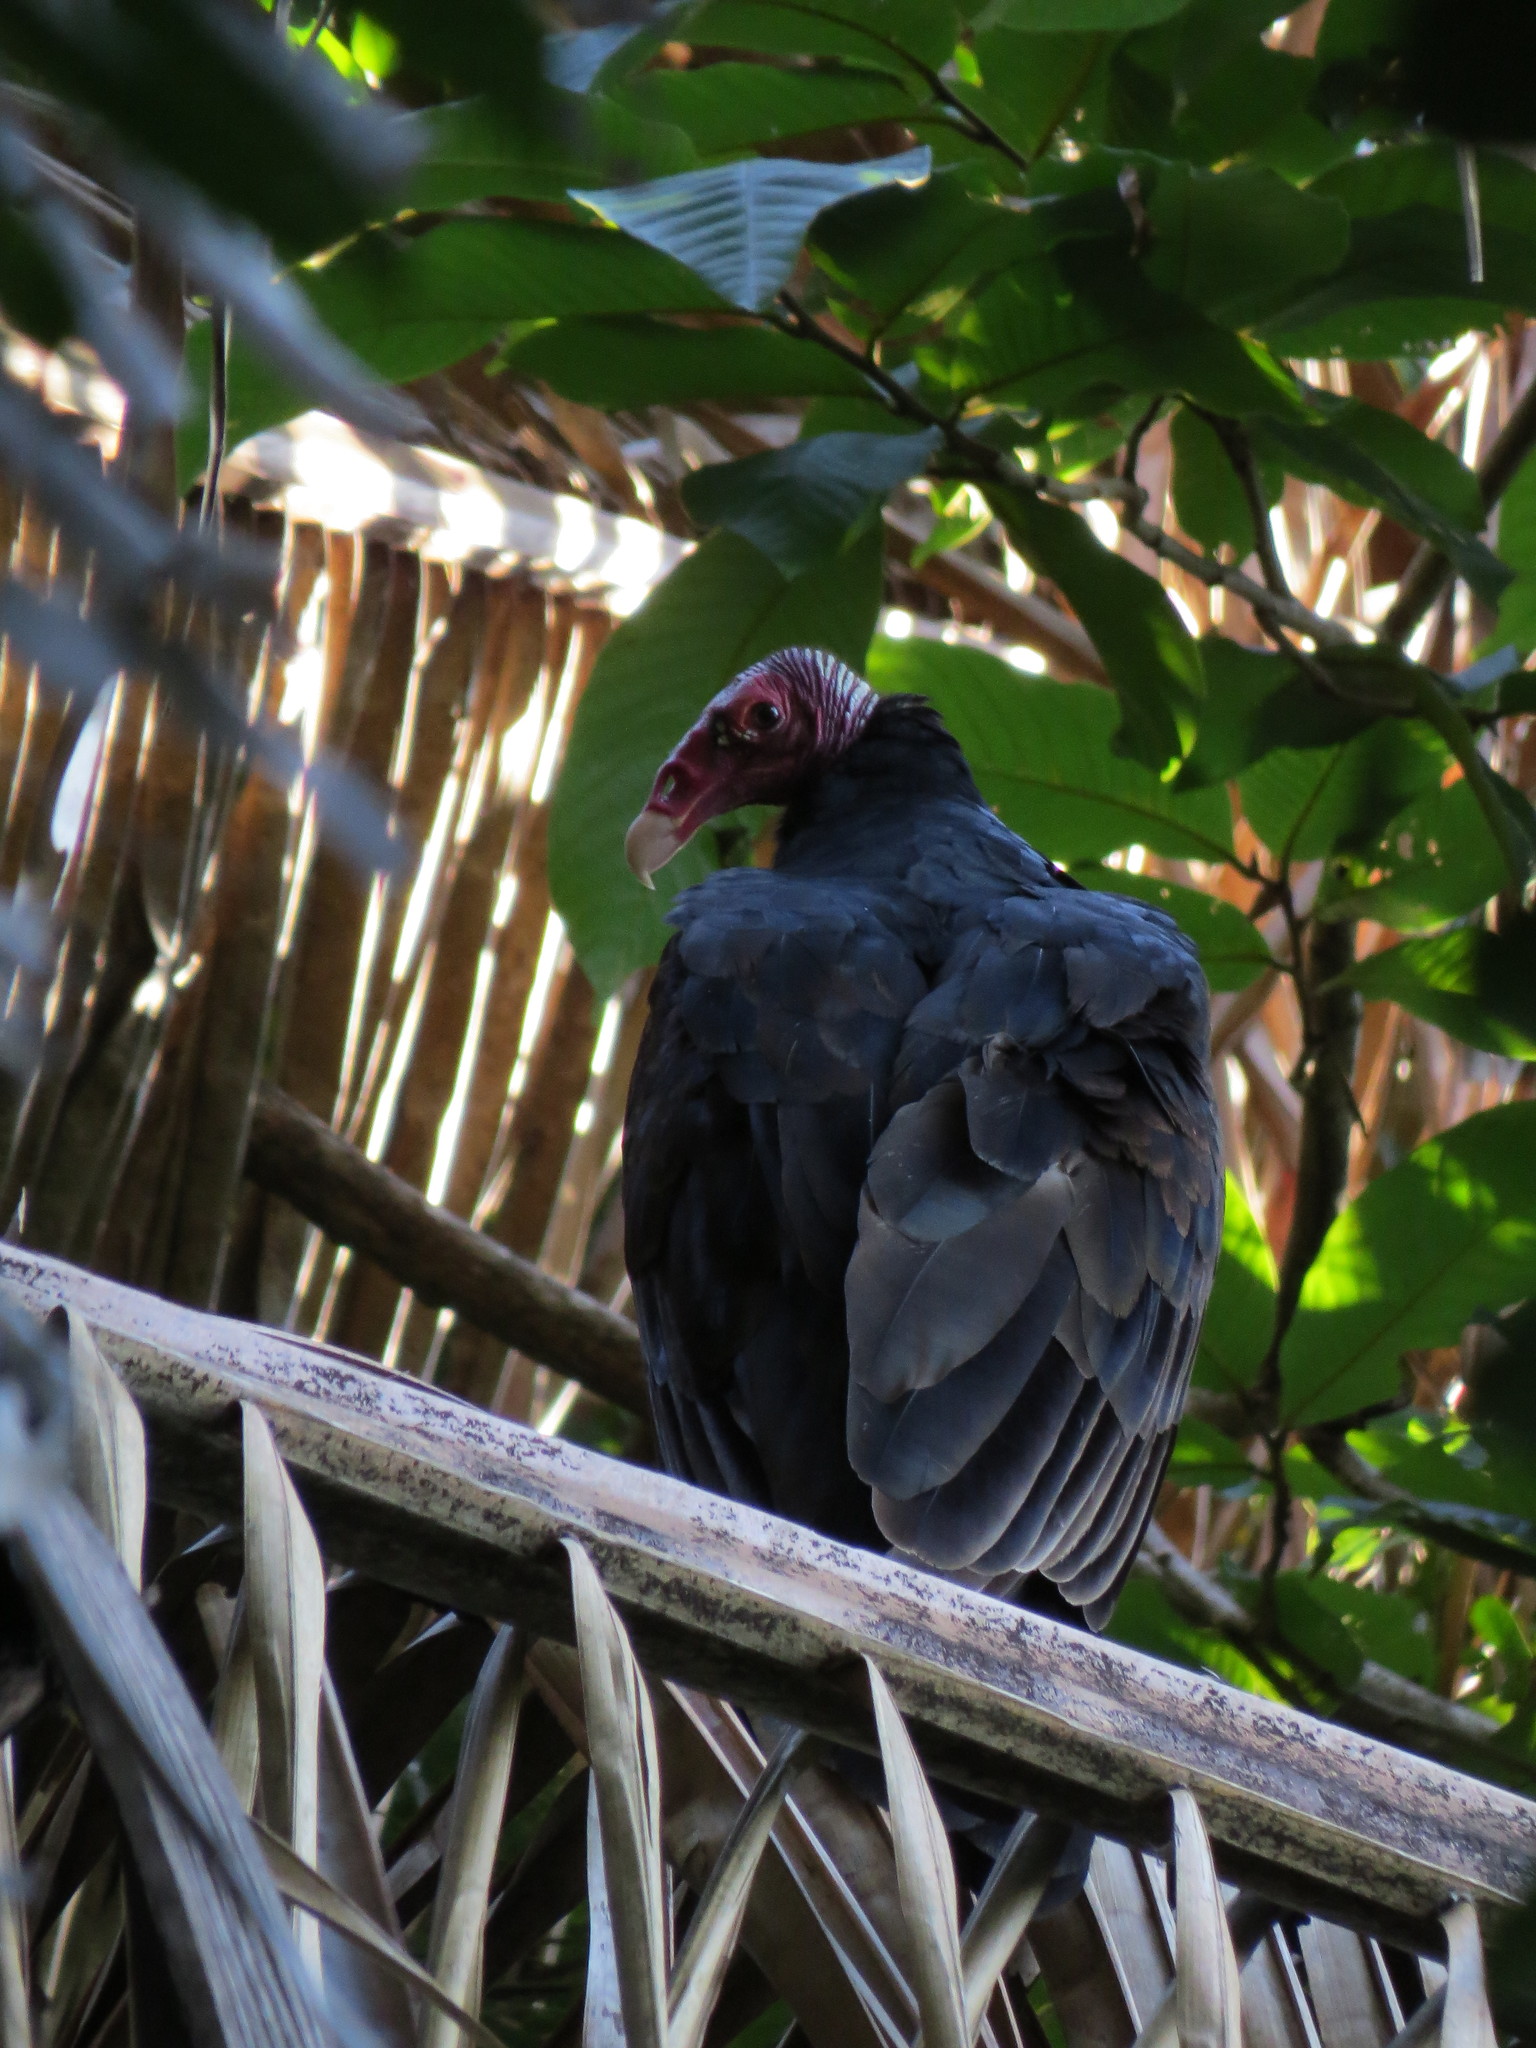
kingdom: Animalia
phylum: Chordata
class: Aves
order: Accipitriformes
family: Cathartidae
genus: Cathartes
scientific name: Cathartes aura
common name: Turkey vulture
